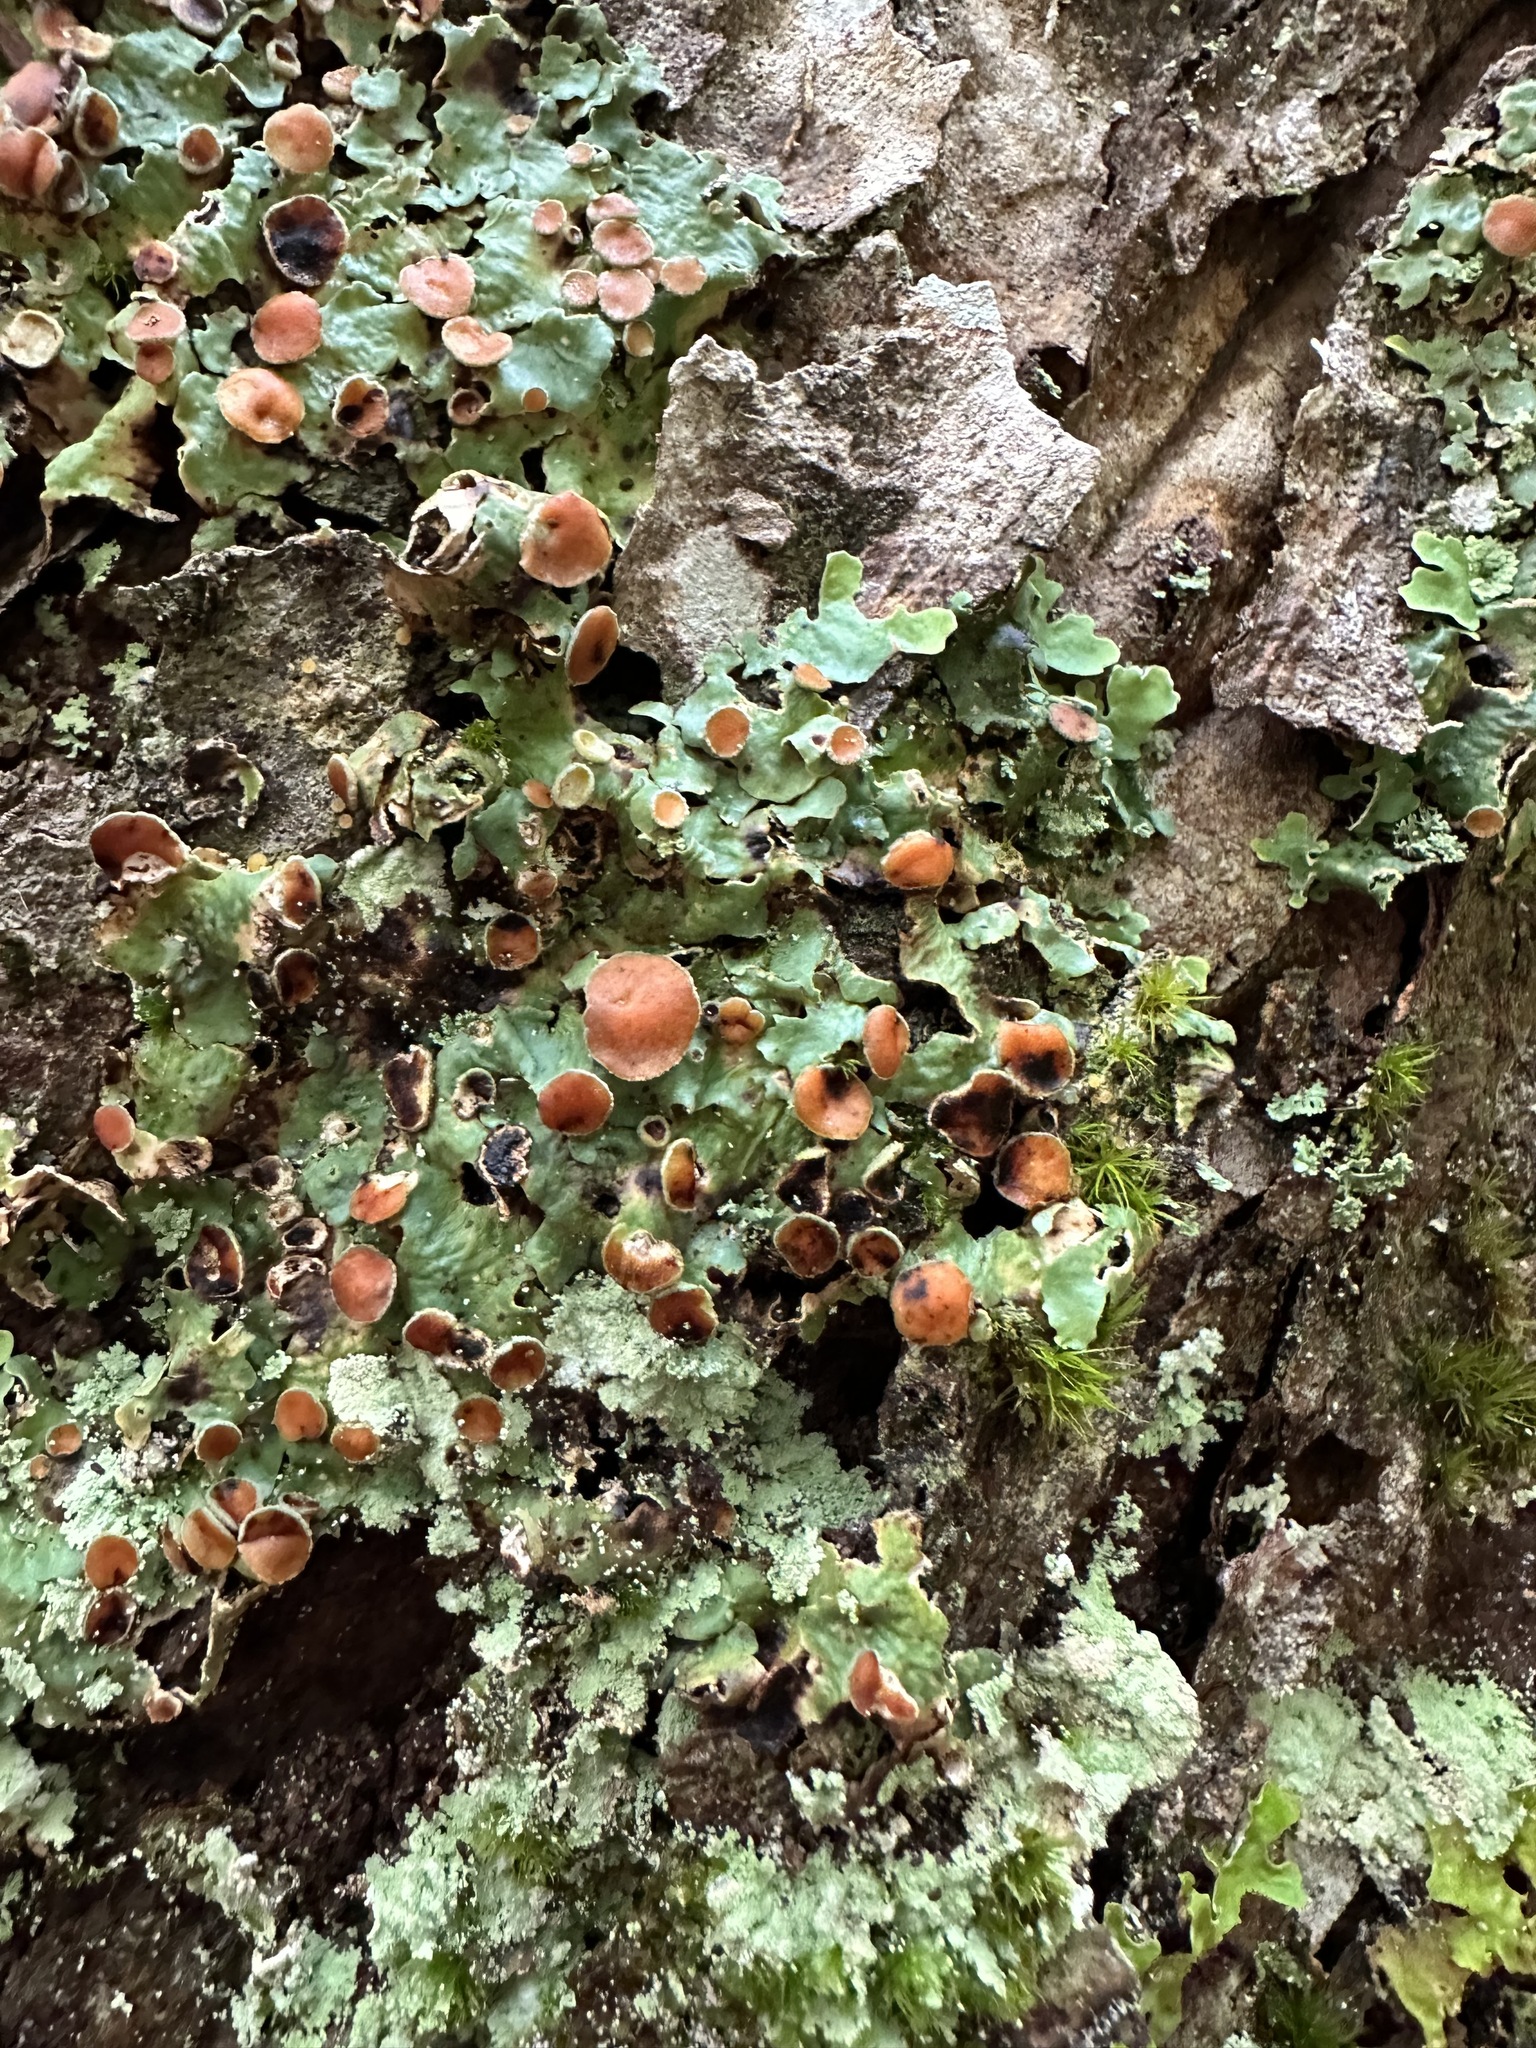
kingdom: Fungi
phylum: Ascomycota
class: Lecanoromycetes
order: Peltigerales
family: Lobariaceae
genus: Ricasolia
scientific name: Ricasolia quercizans
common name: Smooth lungwort
